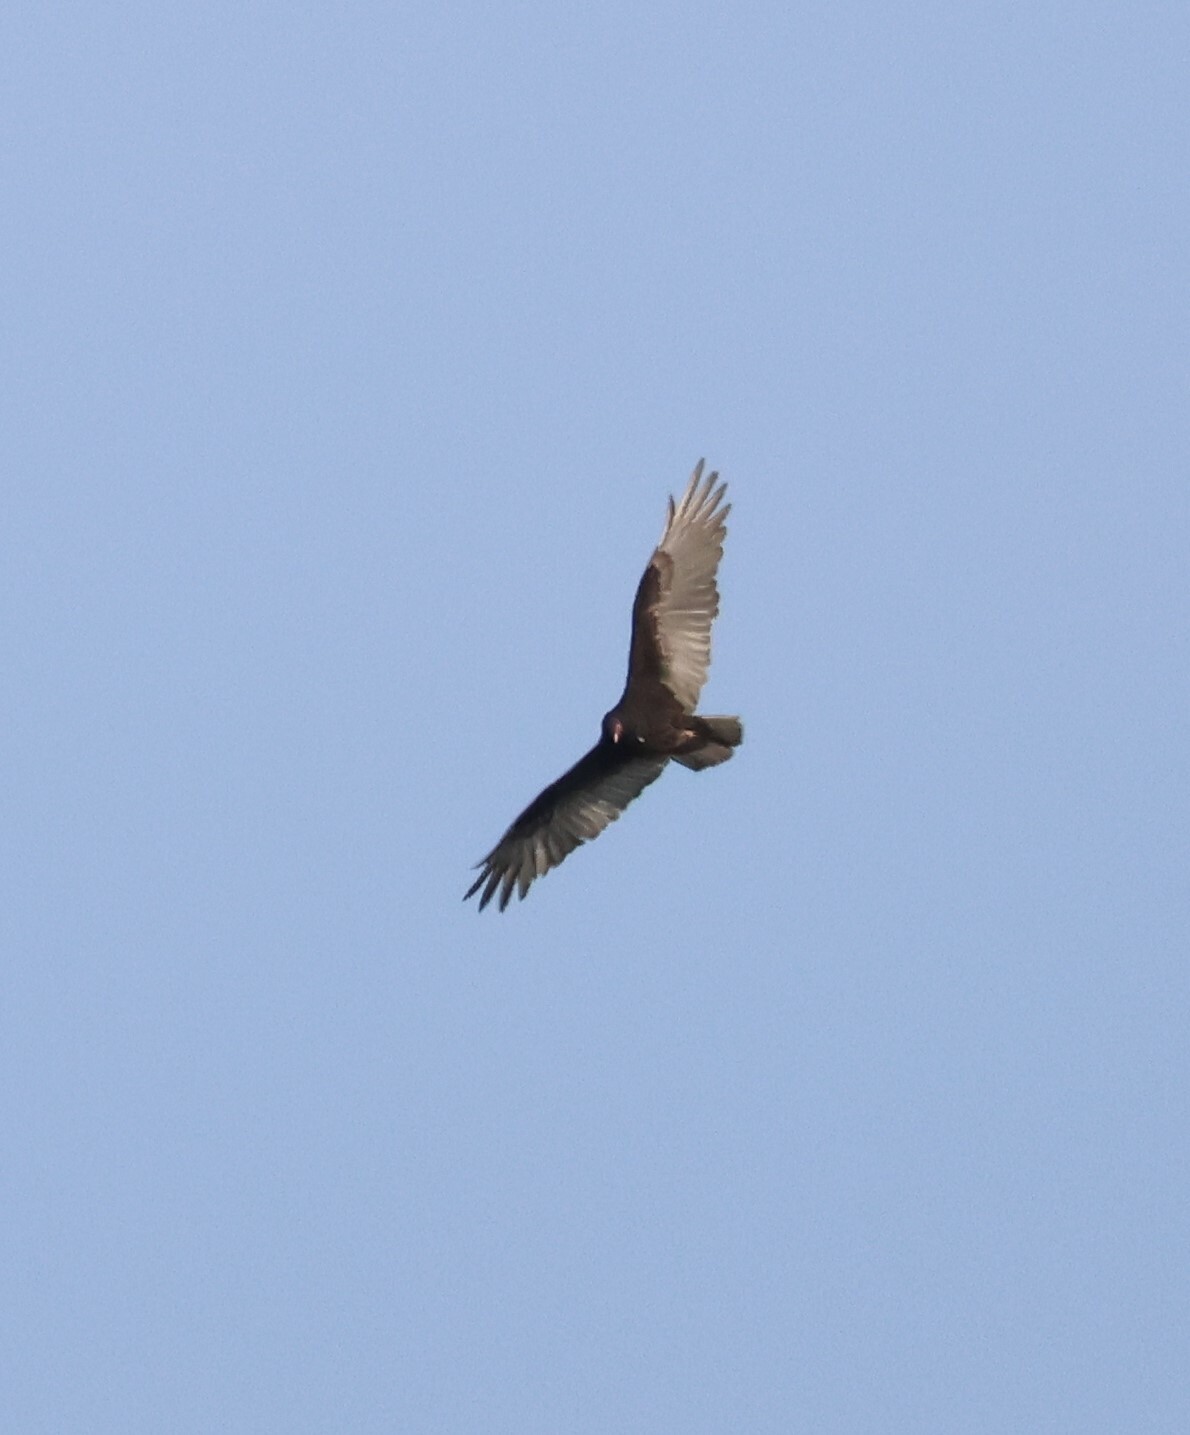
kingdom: Animalia
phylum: Chordata
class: Aves
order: Accipitriformes
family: Cathartidae
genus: Cathartes
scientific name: Cathartes aura
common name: Turkey vulture
